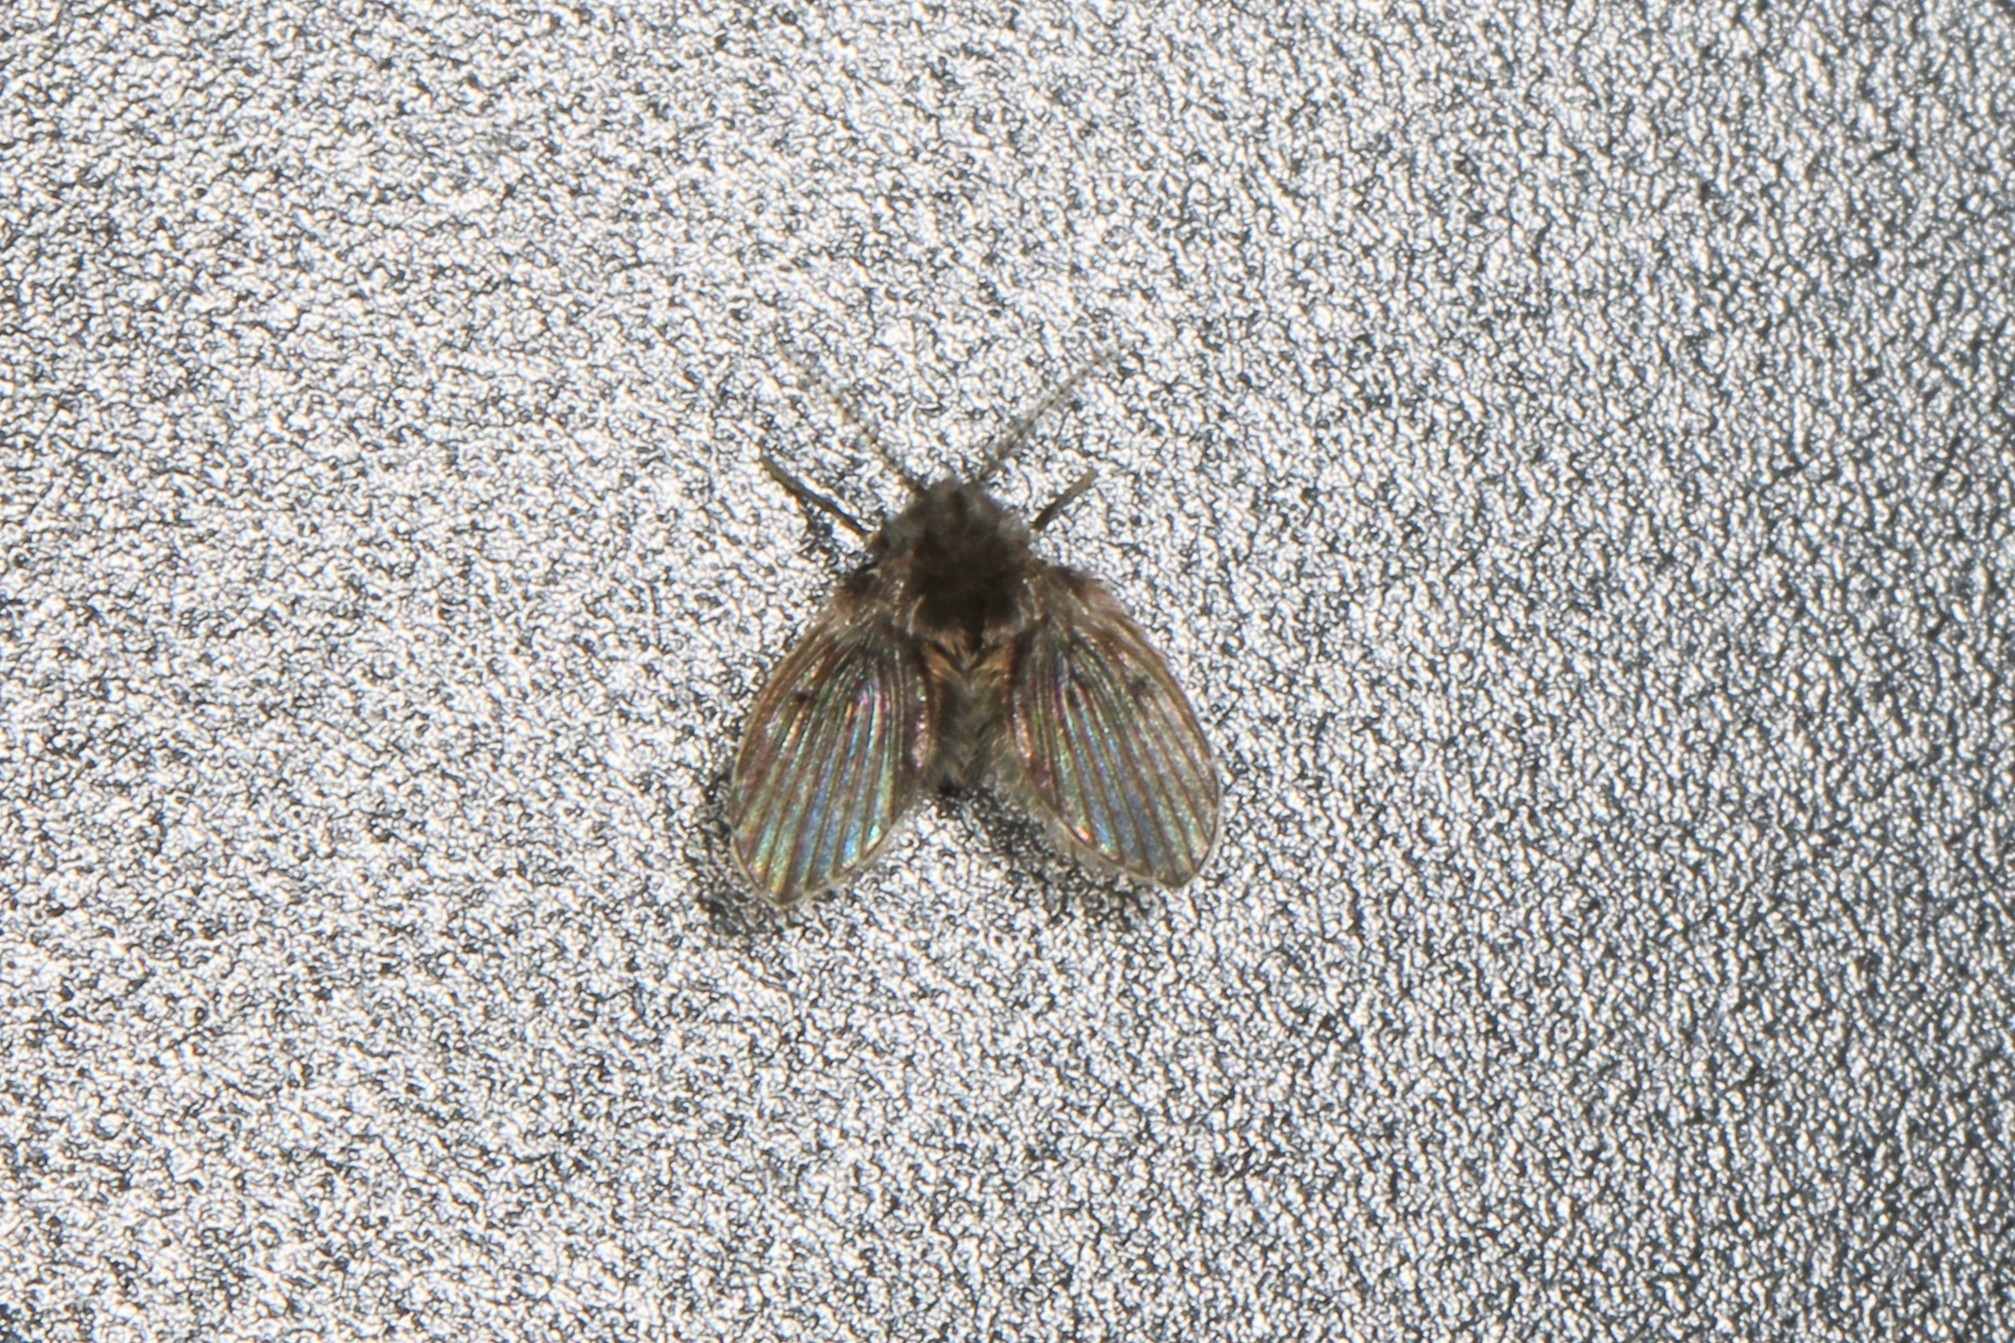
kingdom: Animalia
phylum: Arthropoda
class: Insecta
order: Diptera
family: Psychodidae
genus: Clogmia
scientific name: Clogmia albipunctatus
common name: White-spotted moth fly
